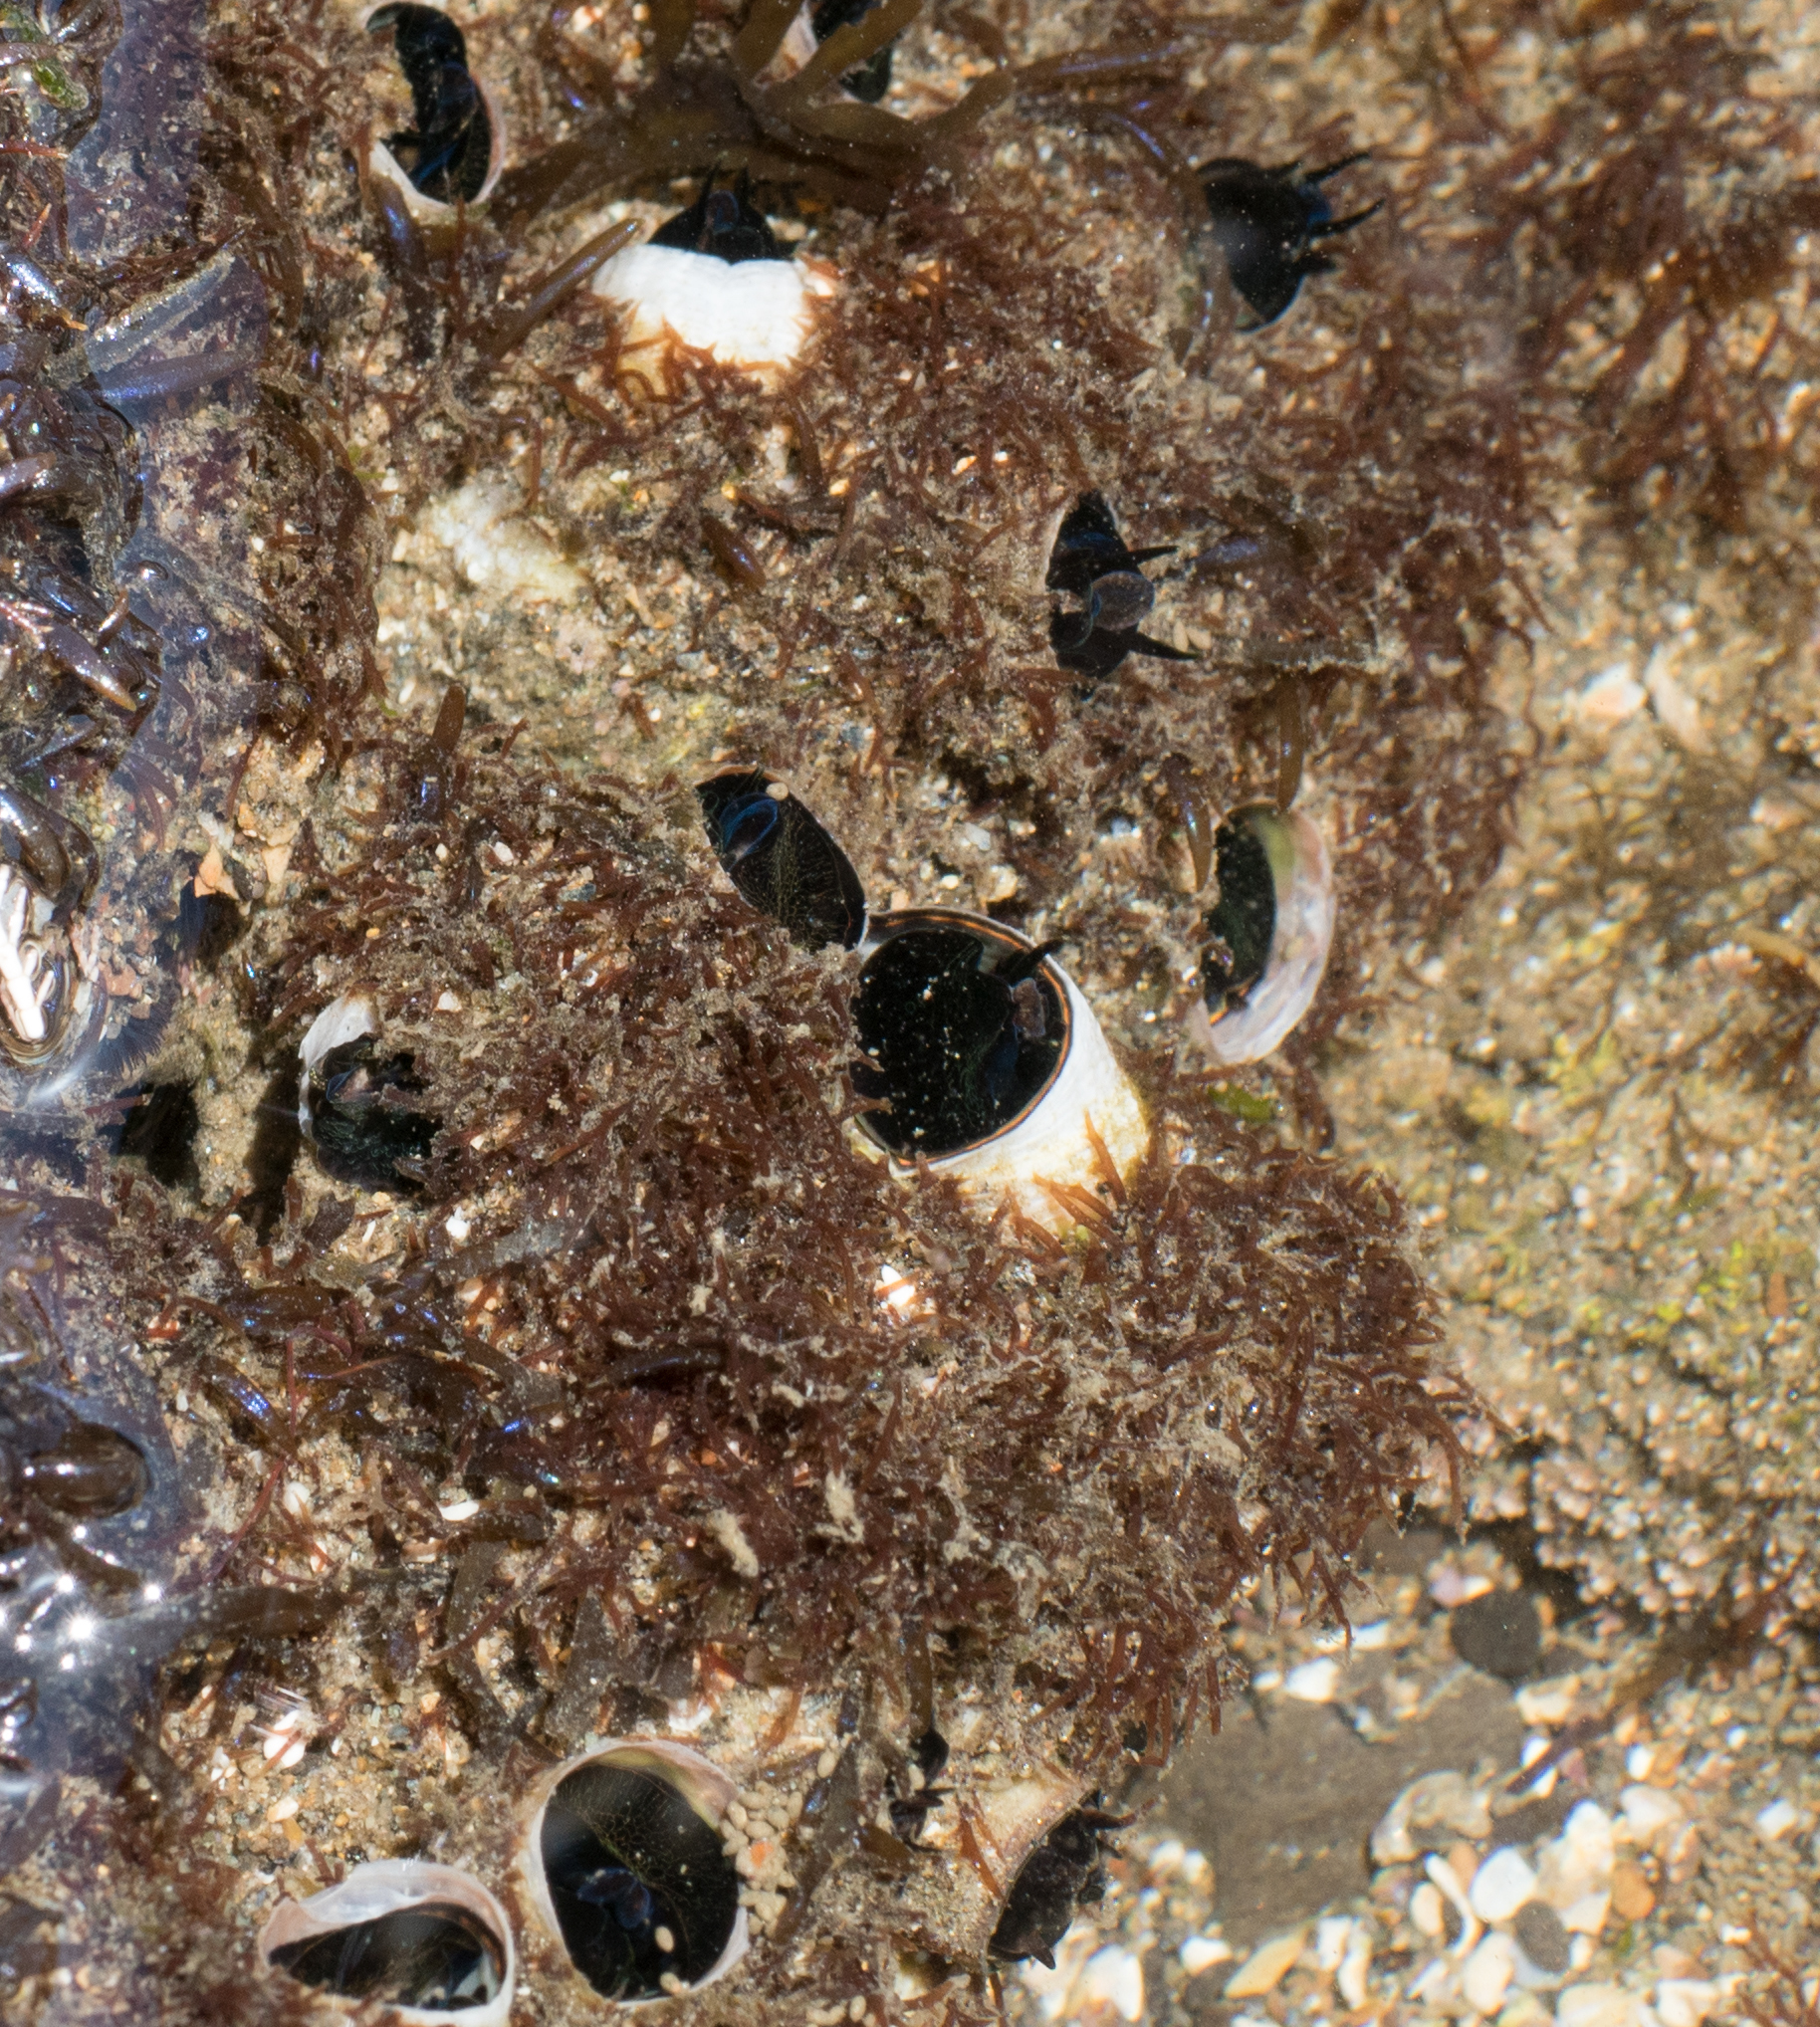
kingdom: Animalia
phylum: Mollusca
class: Gastropoda
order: Littorinimorpha
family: Vermetidae
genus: Thylacodes
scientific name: Thylacodes squamigerus
